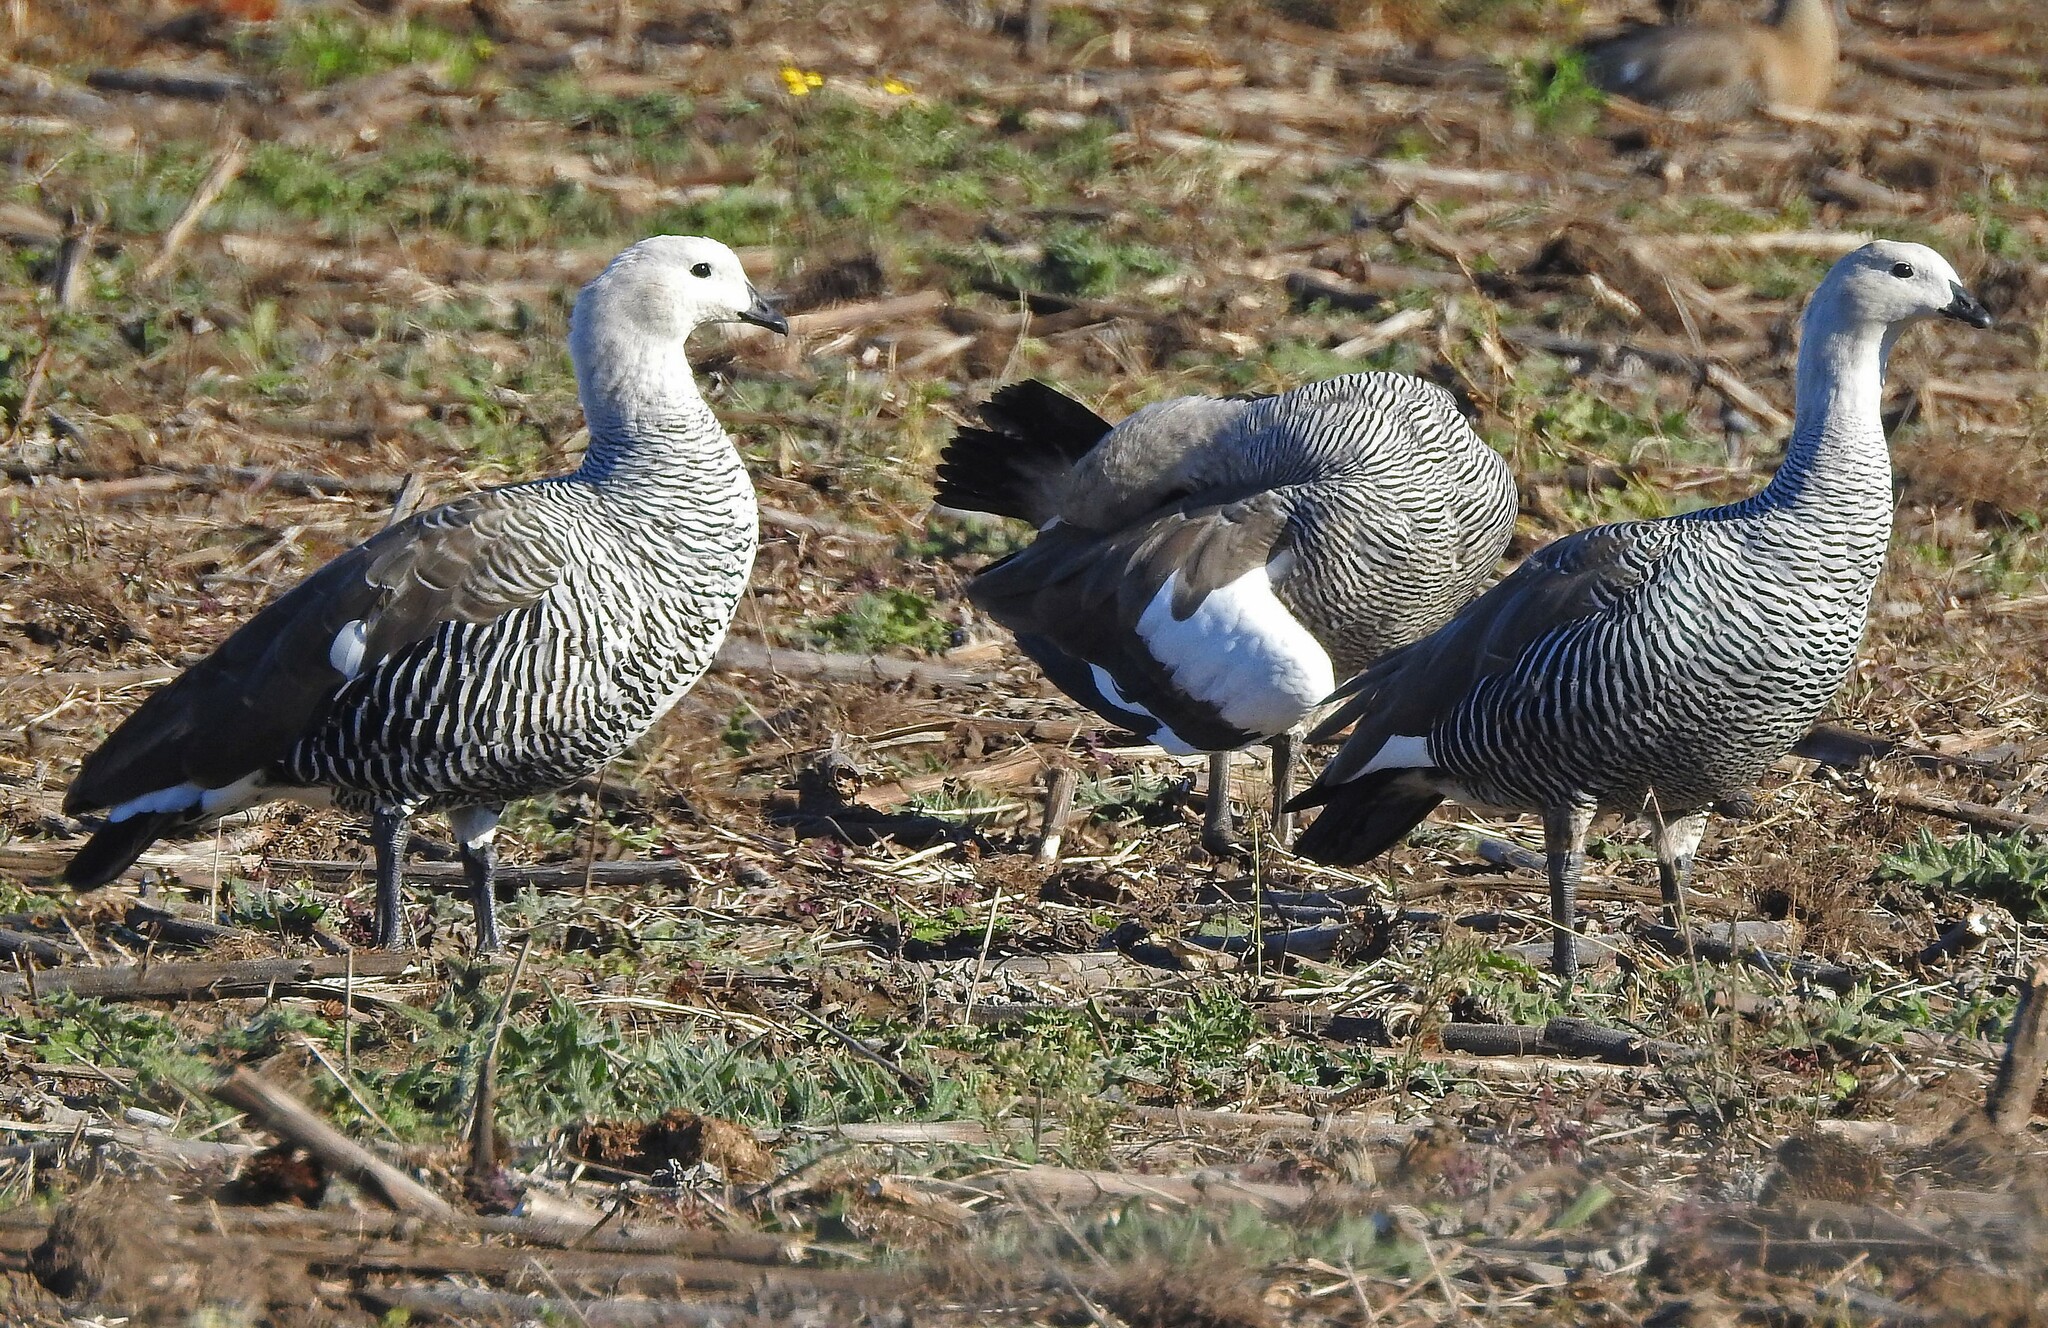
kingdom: Animalia
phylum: Chordata
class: Aves
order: Anseriformes
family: Anatidae
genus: Chloephaga
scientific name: Chloephaga picta
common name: Upland goose
